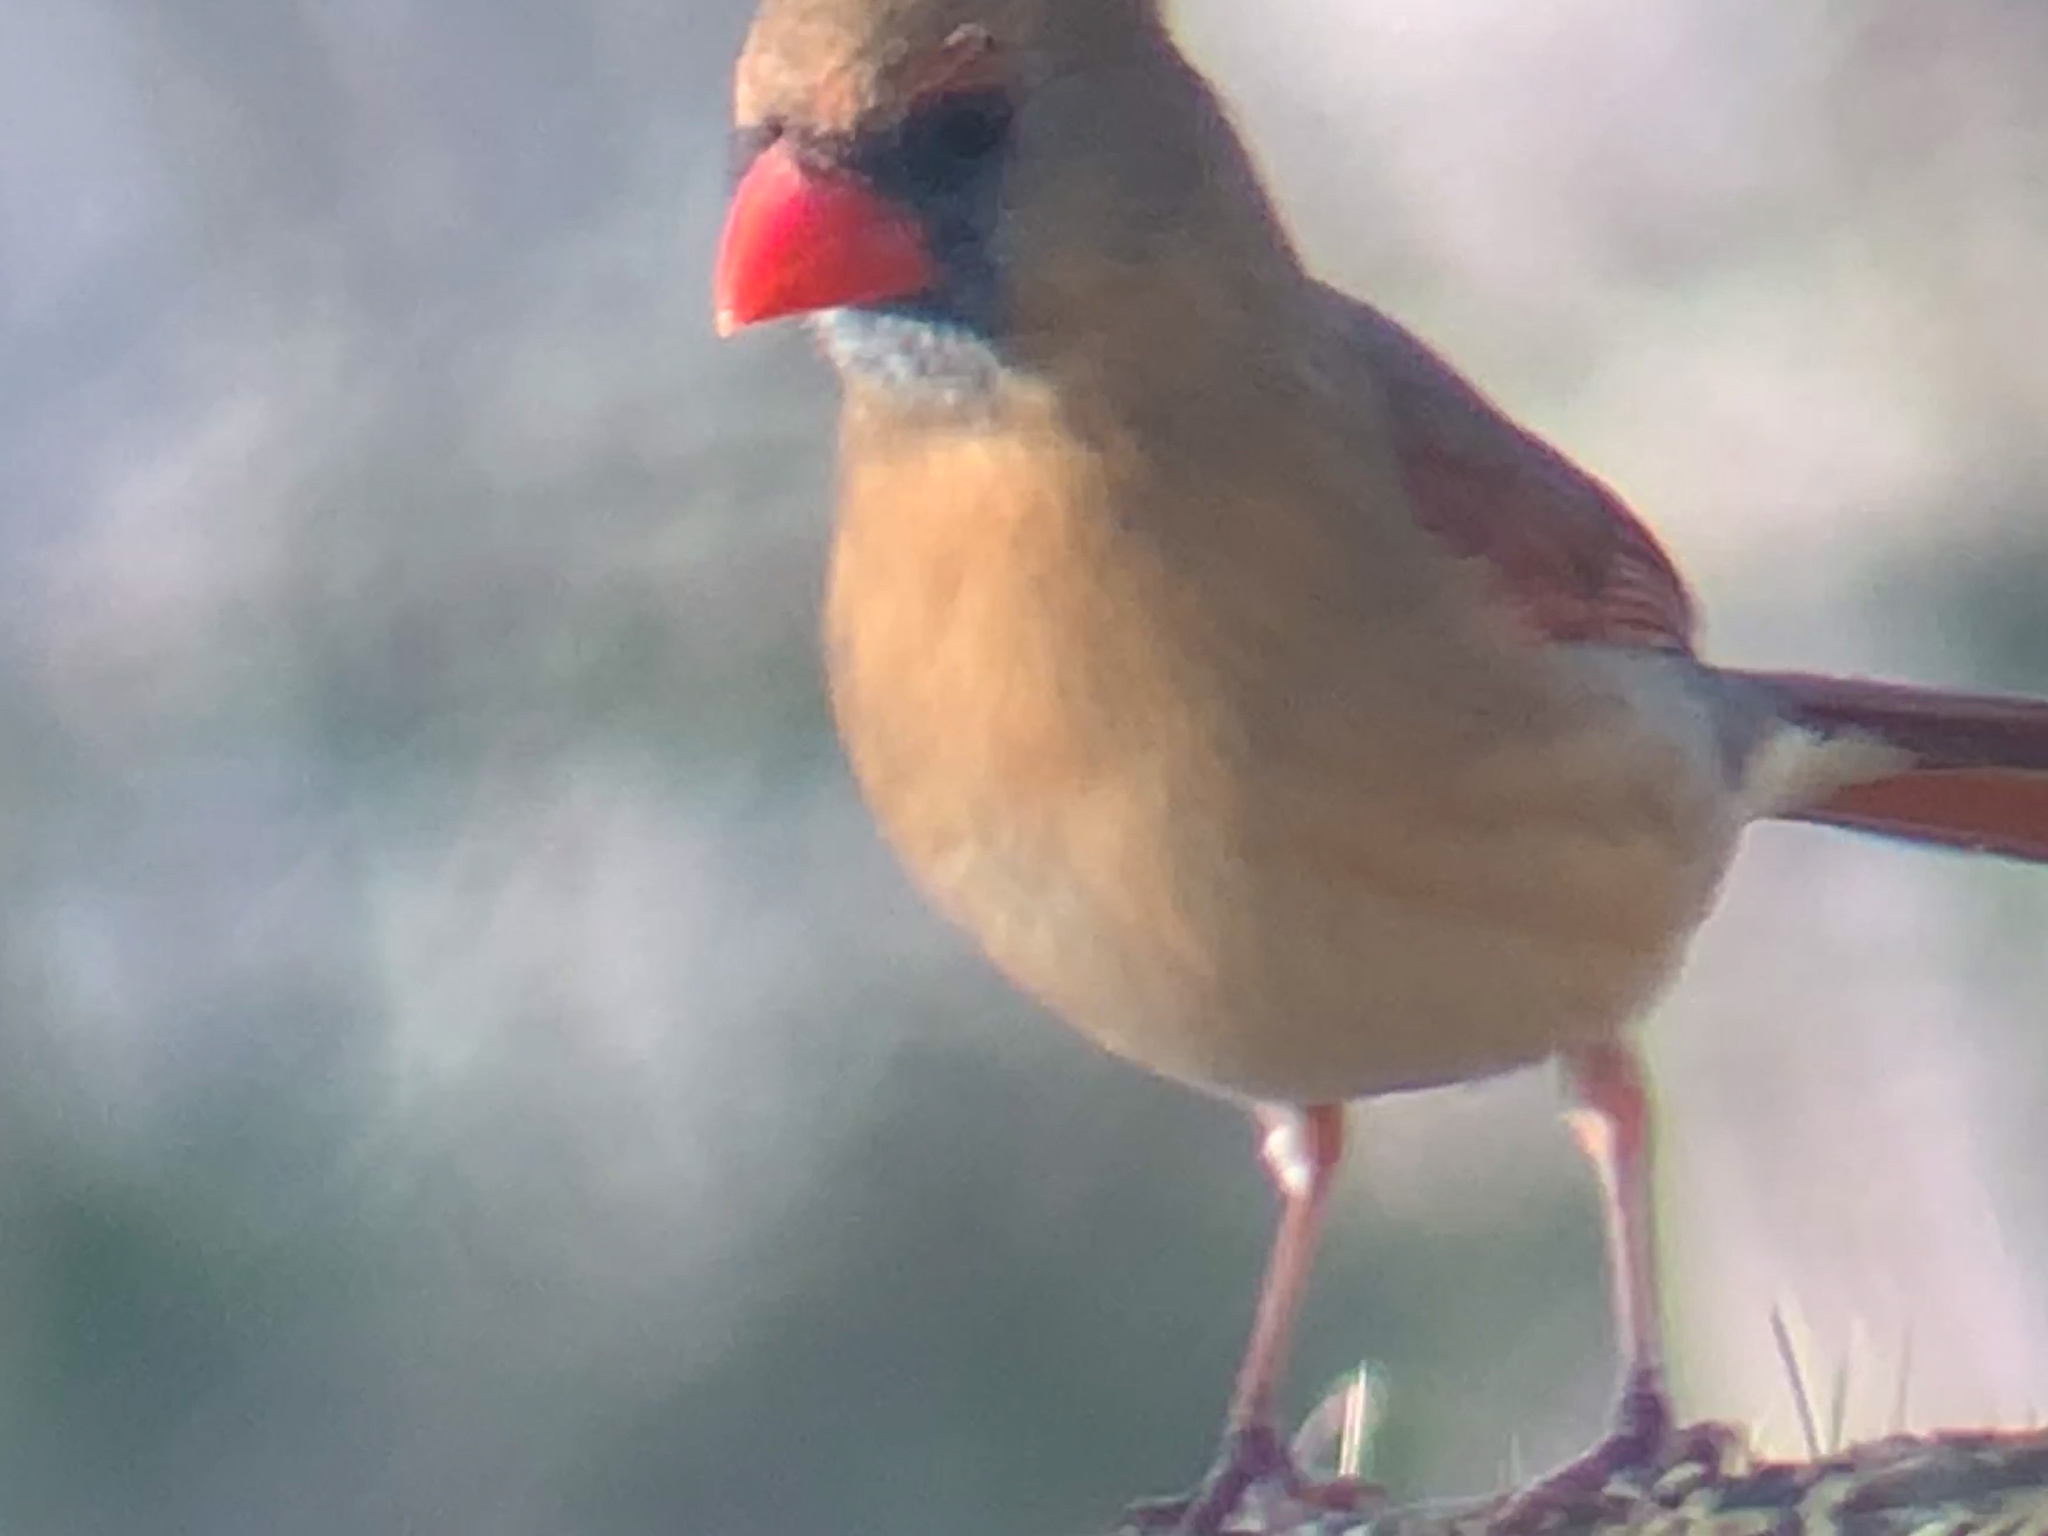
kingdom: Animalia
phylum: Chordata
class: Aves
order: Passeriformes
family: Cardinalidae
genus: Cardinalis
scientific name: Cardinalis cardinalis
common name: Northern cardinal
